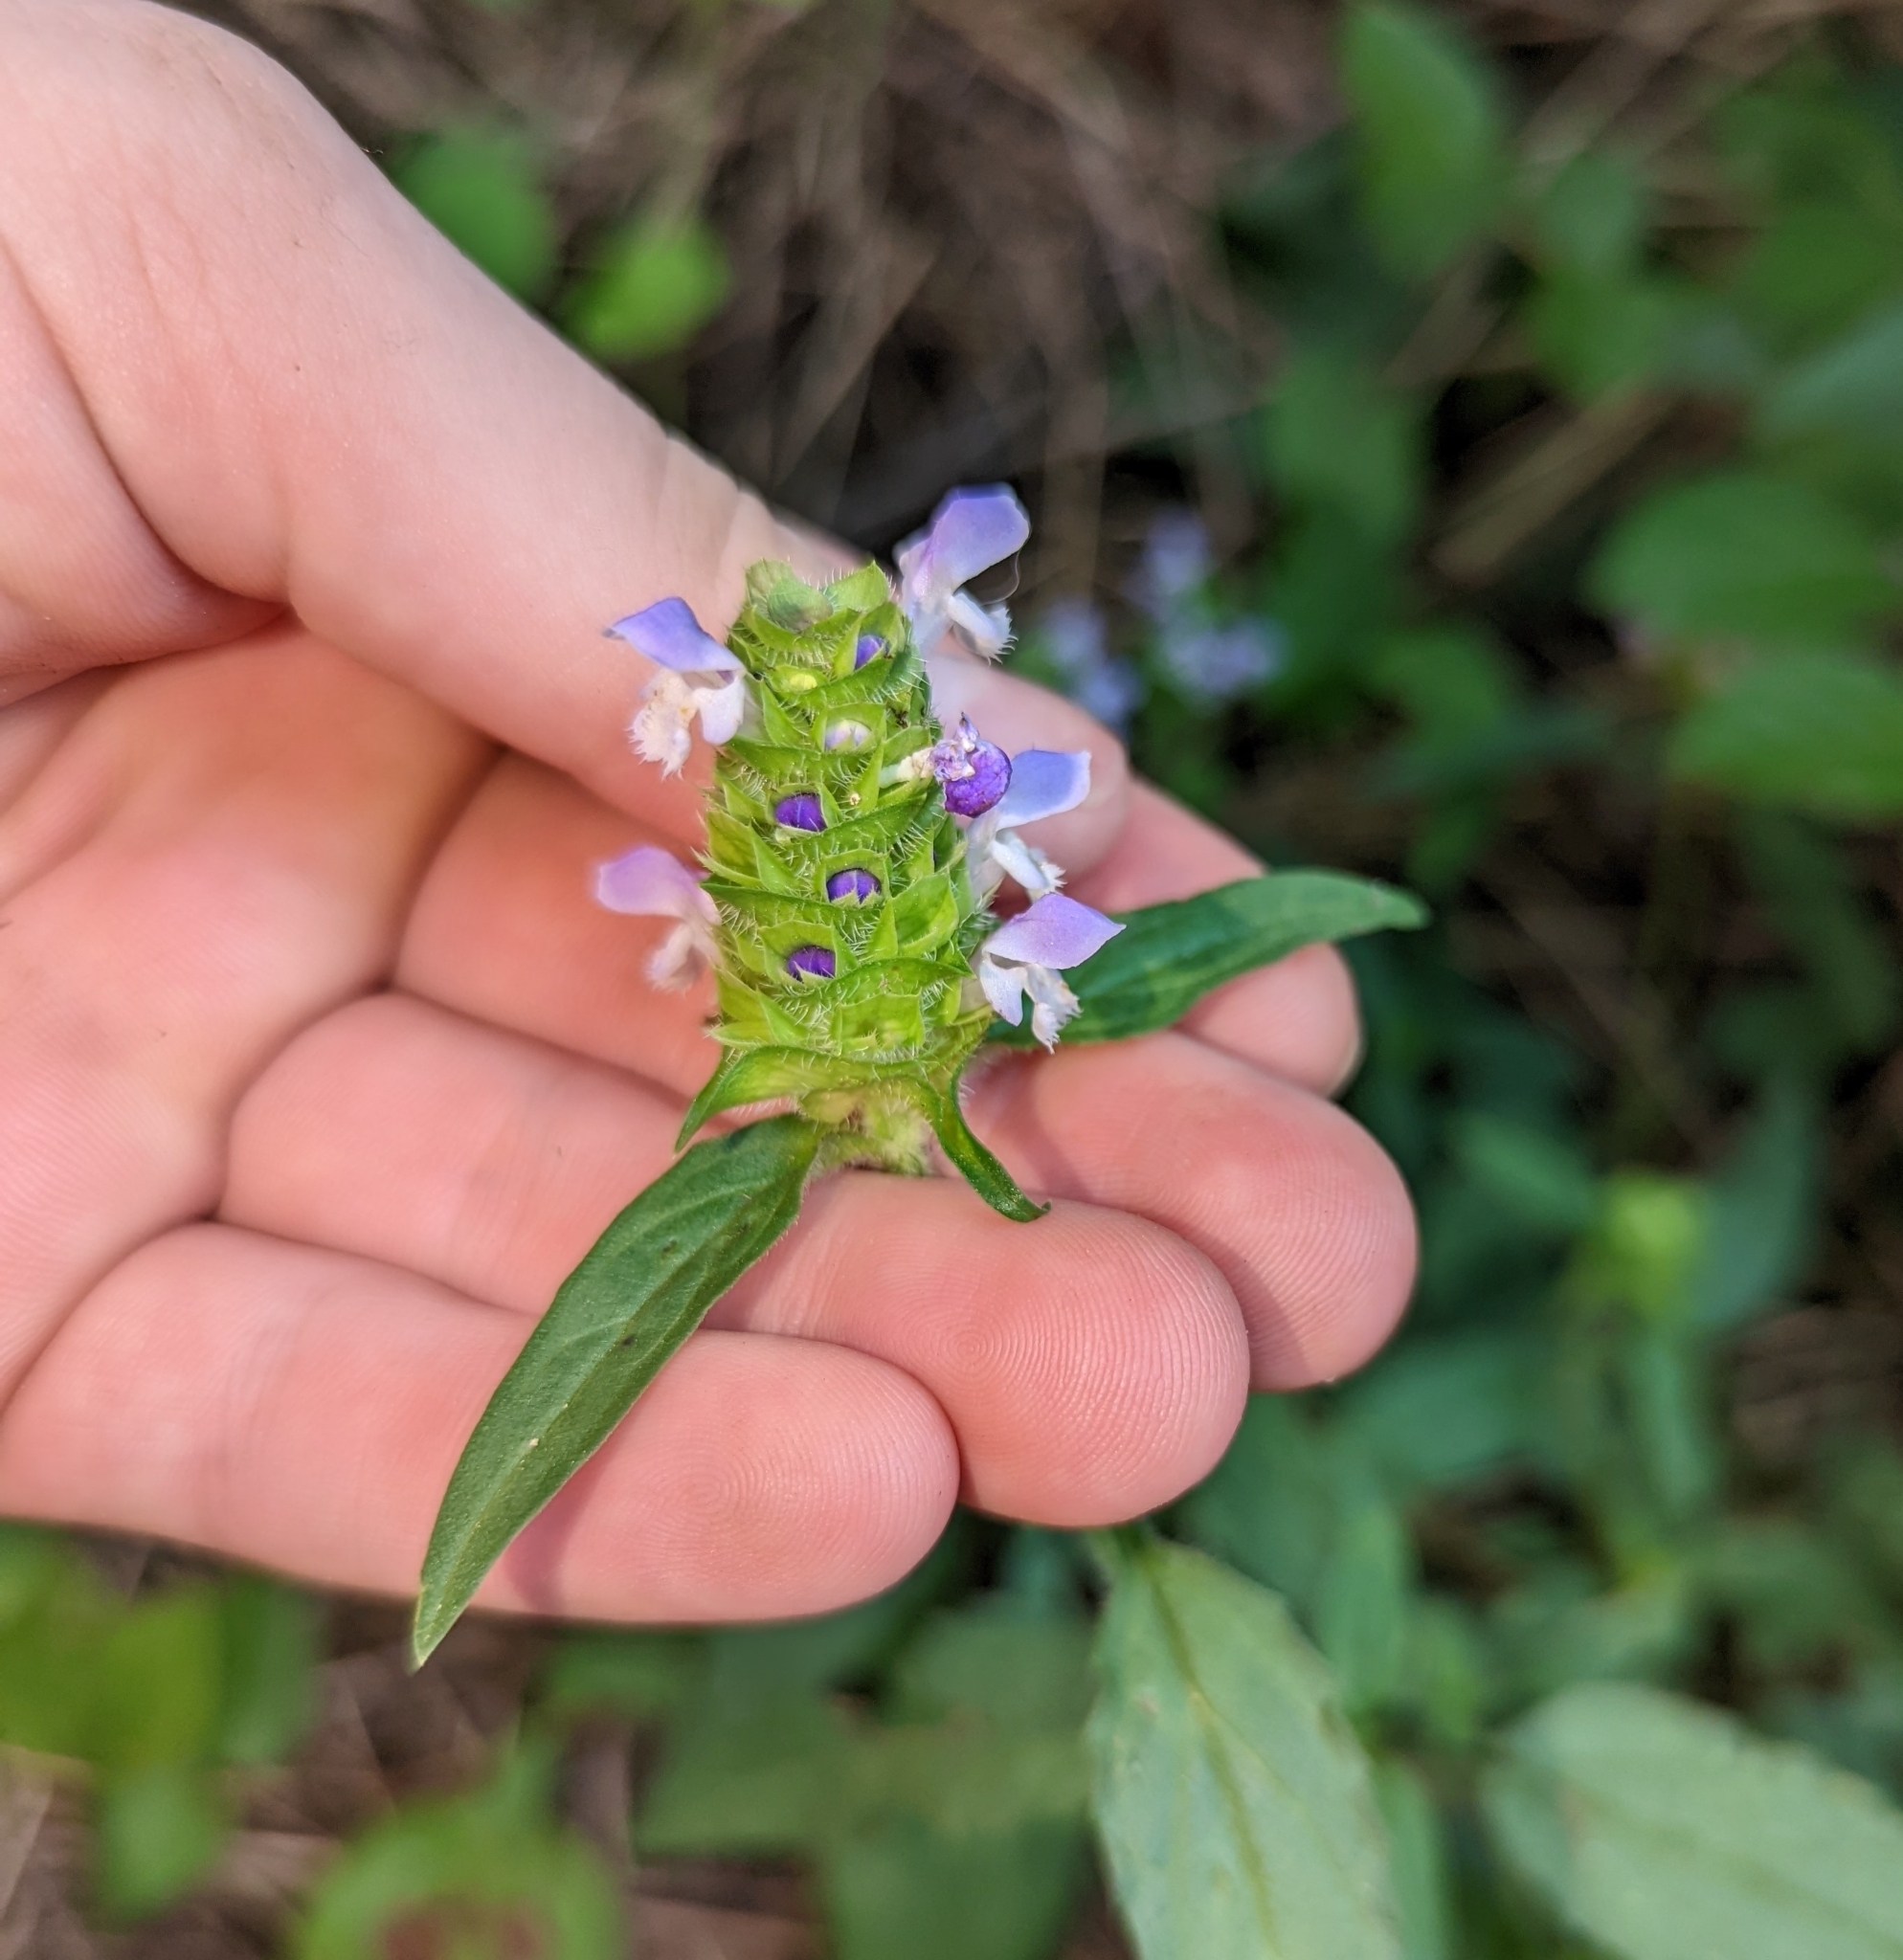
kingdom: Plantae
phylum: Tracheophyta
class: Magnoliopsida
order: Lamiales
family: Lamiaceae
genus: Prunella
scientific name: Prunella vulgaris
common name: Heal-all
